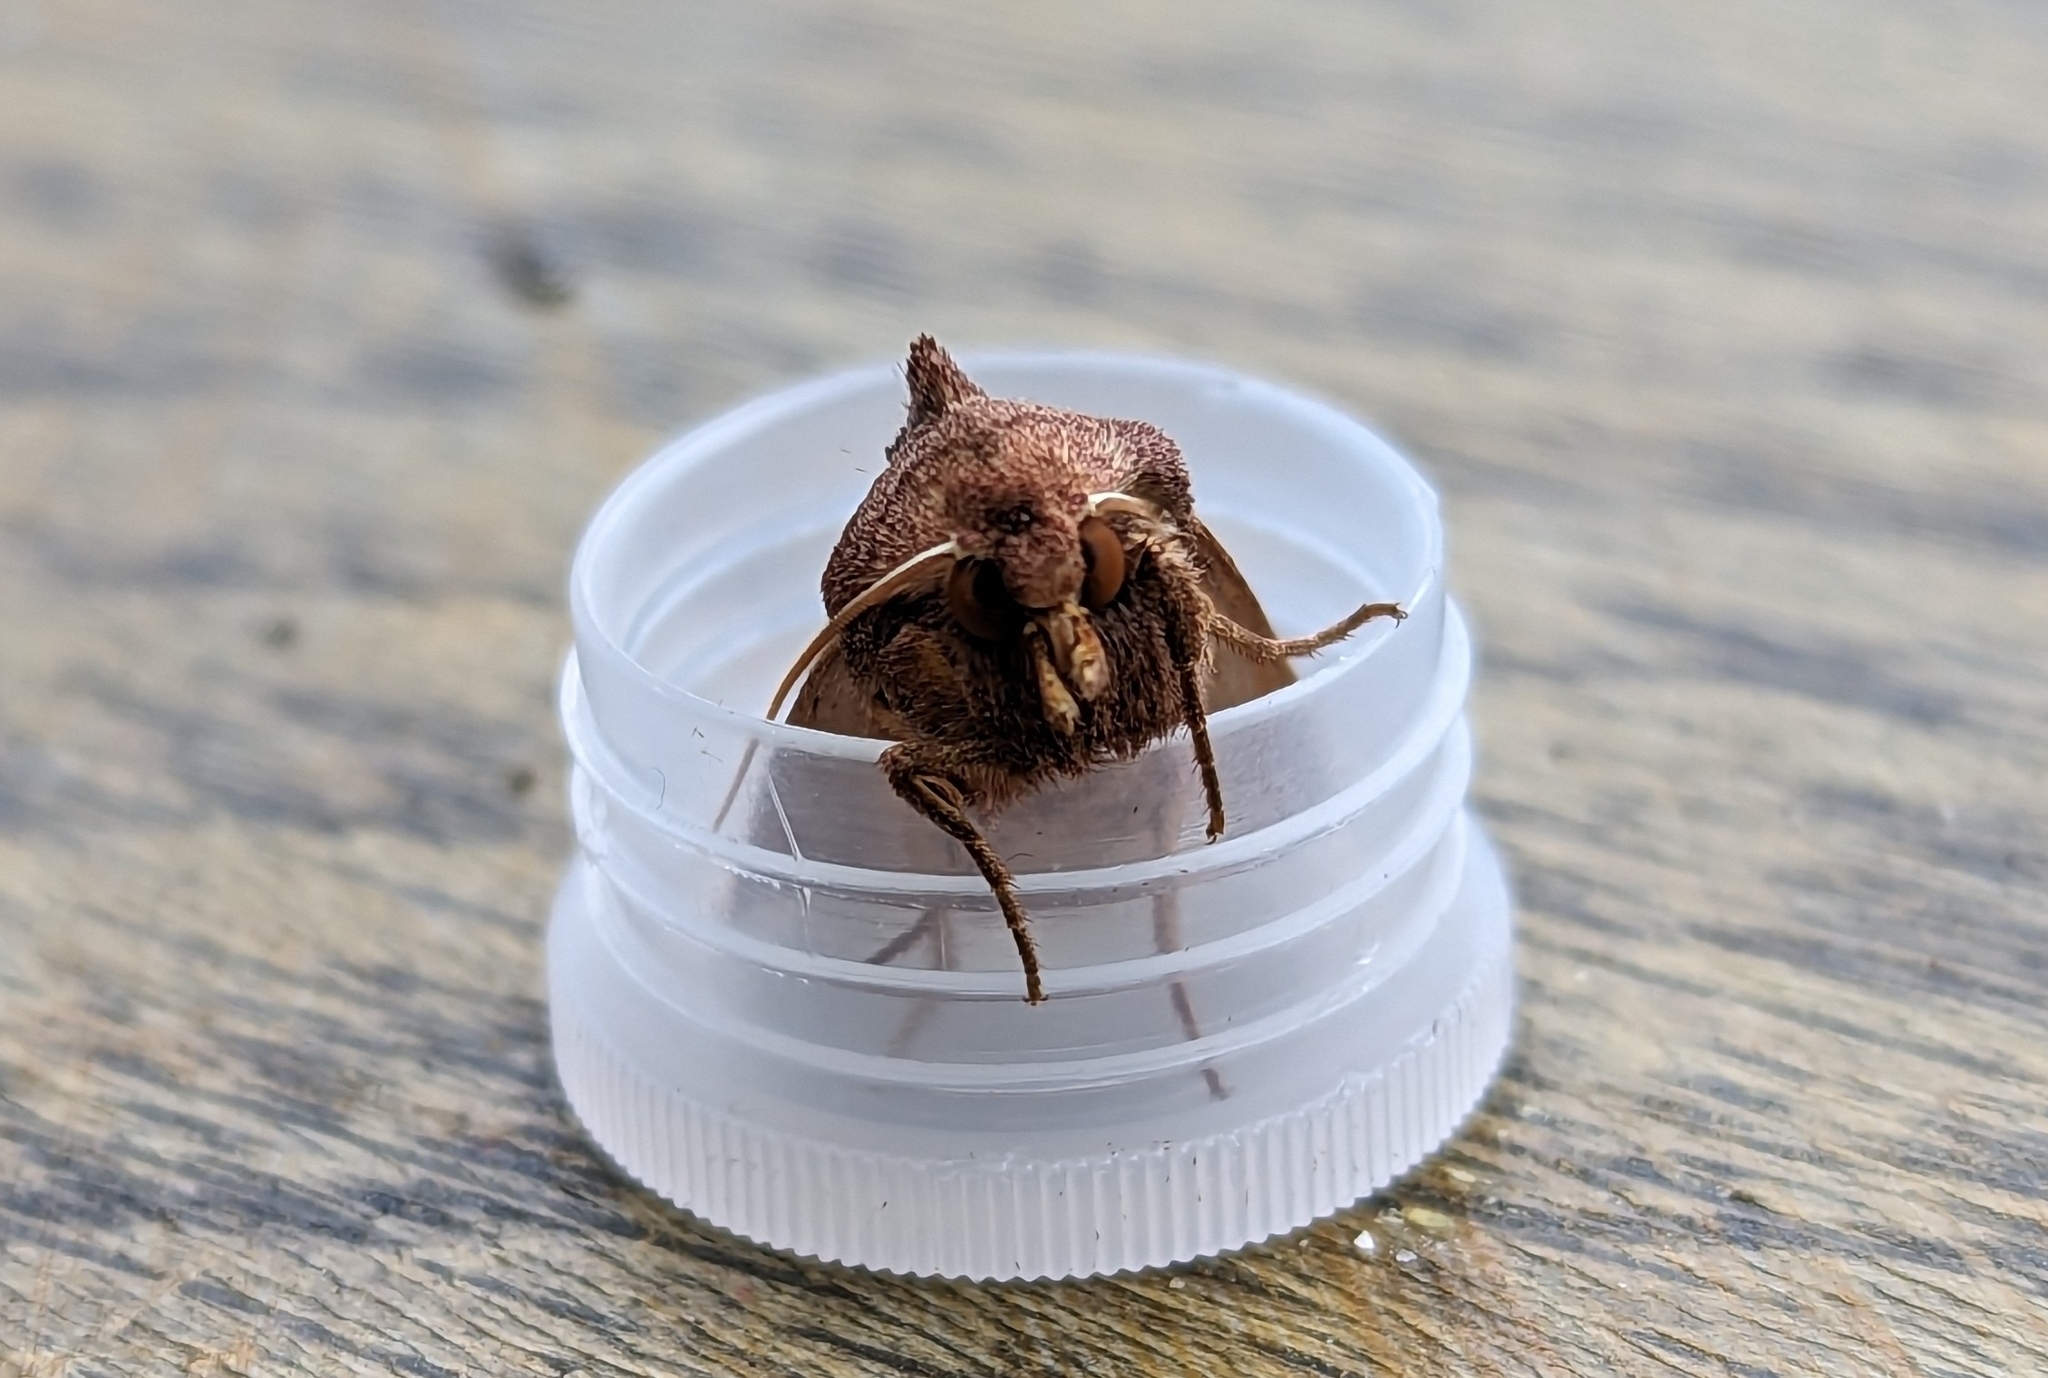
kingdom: Animalia
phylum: Arthropoda
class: Insecta
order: Lepidoptera
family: Noctuidae
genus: Hydraecia
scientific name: Hydraecia micacea
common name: Rosy rustic
